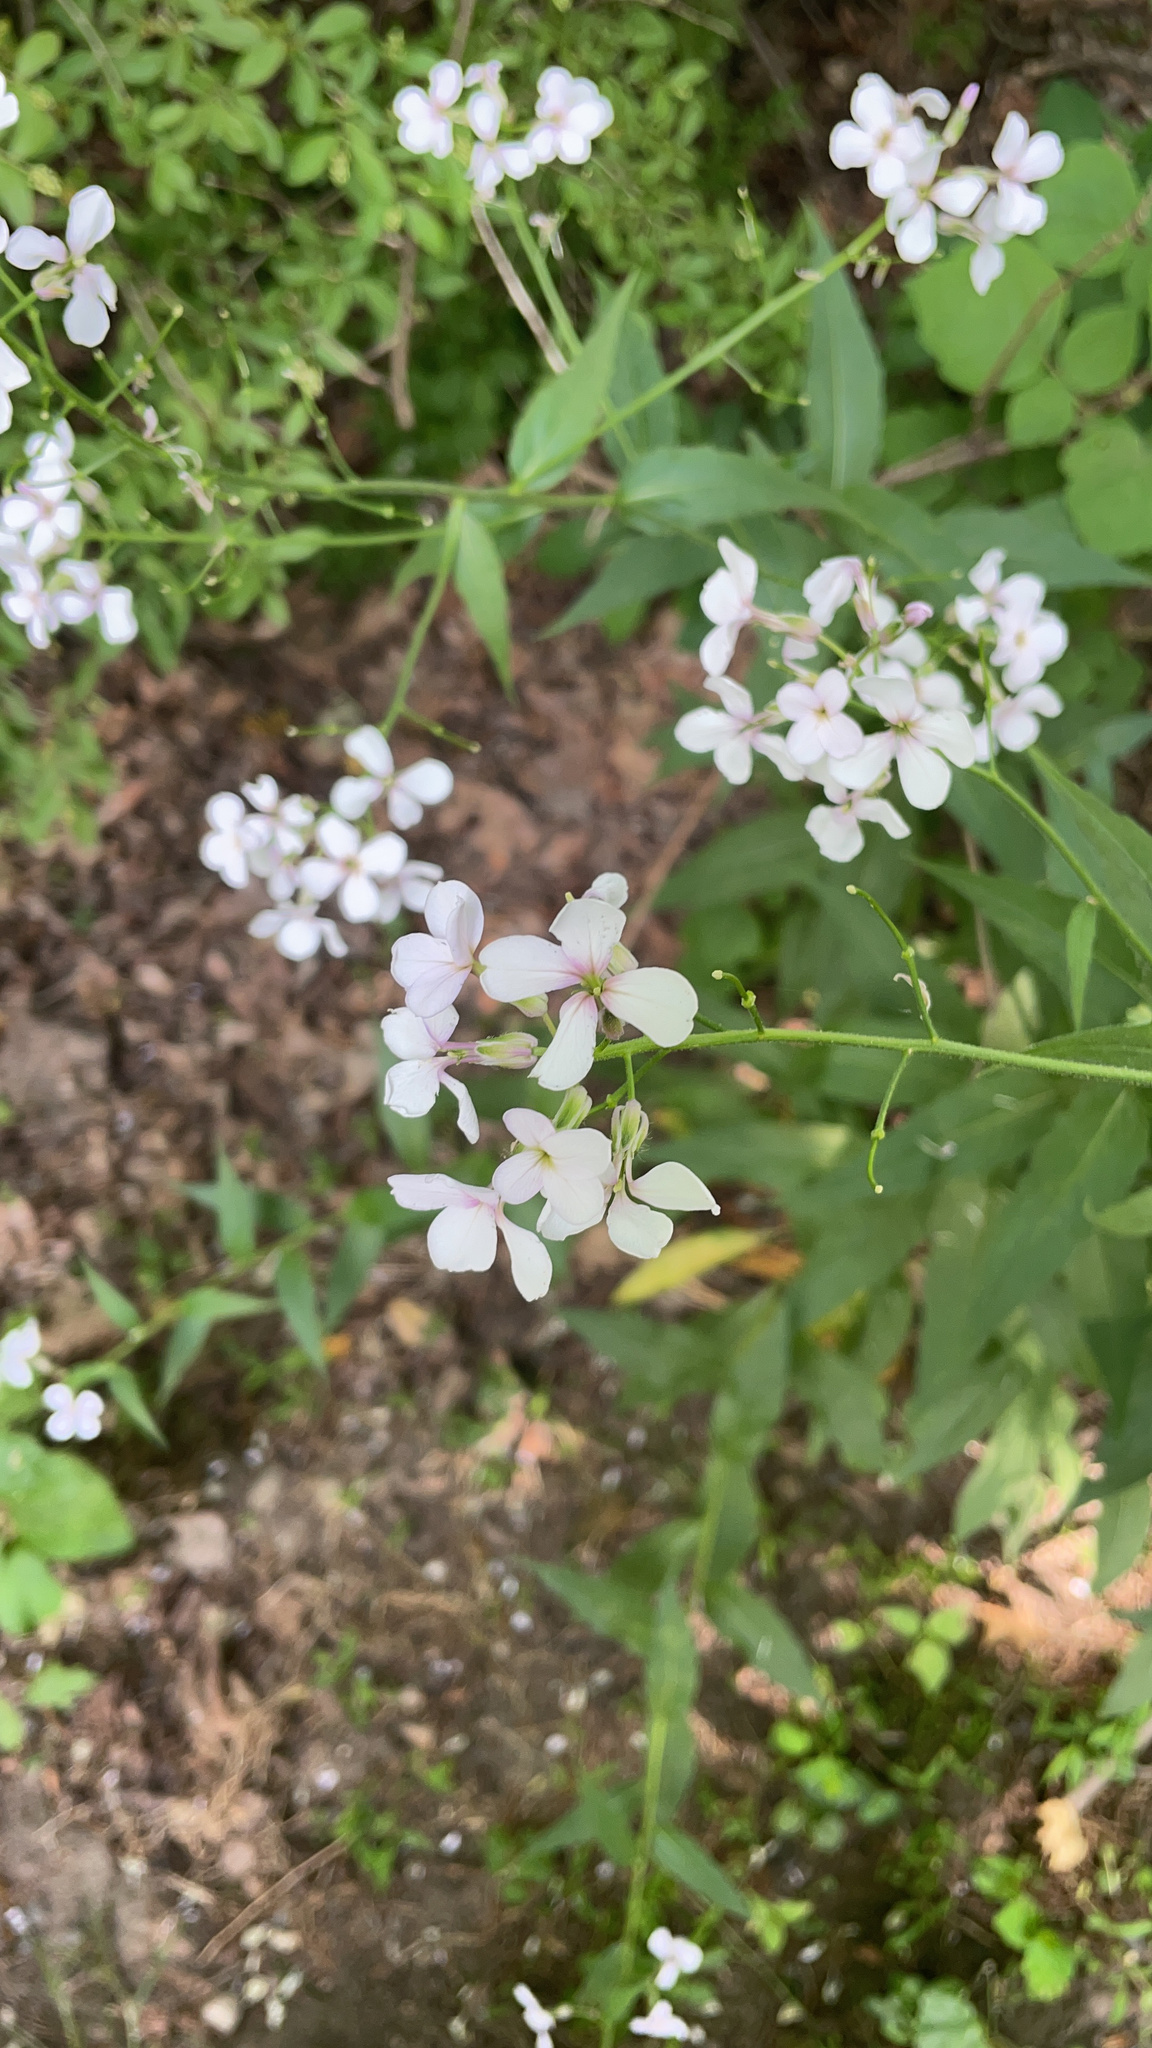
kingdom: Plantae
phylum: Tracheophyta
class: Magnoliopsida
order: Brassicales
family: Brassicaceae
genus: Hesperis
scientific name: Hesperis matronalis
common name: Dame's-violet
